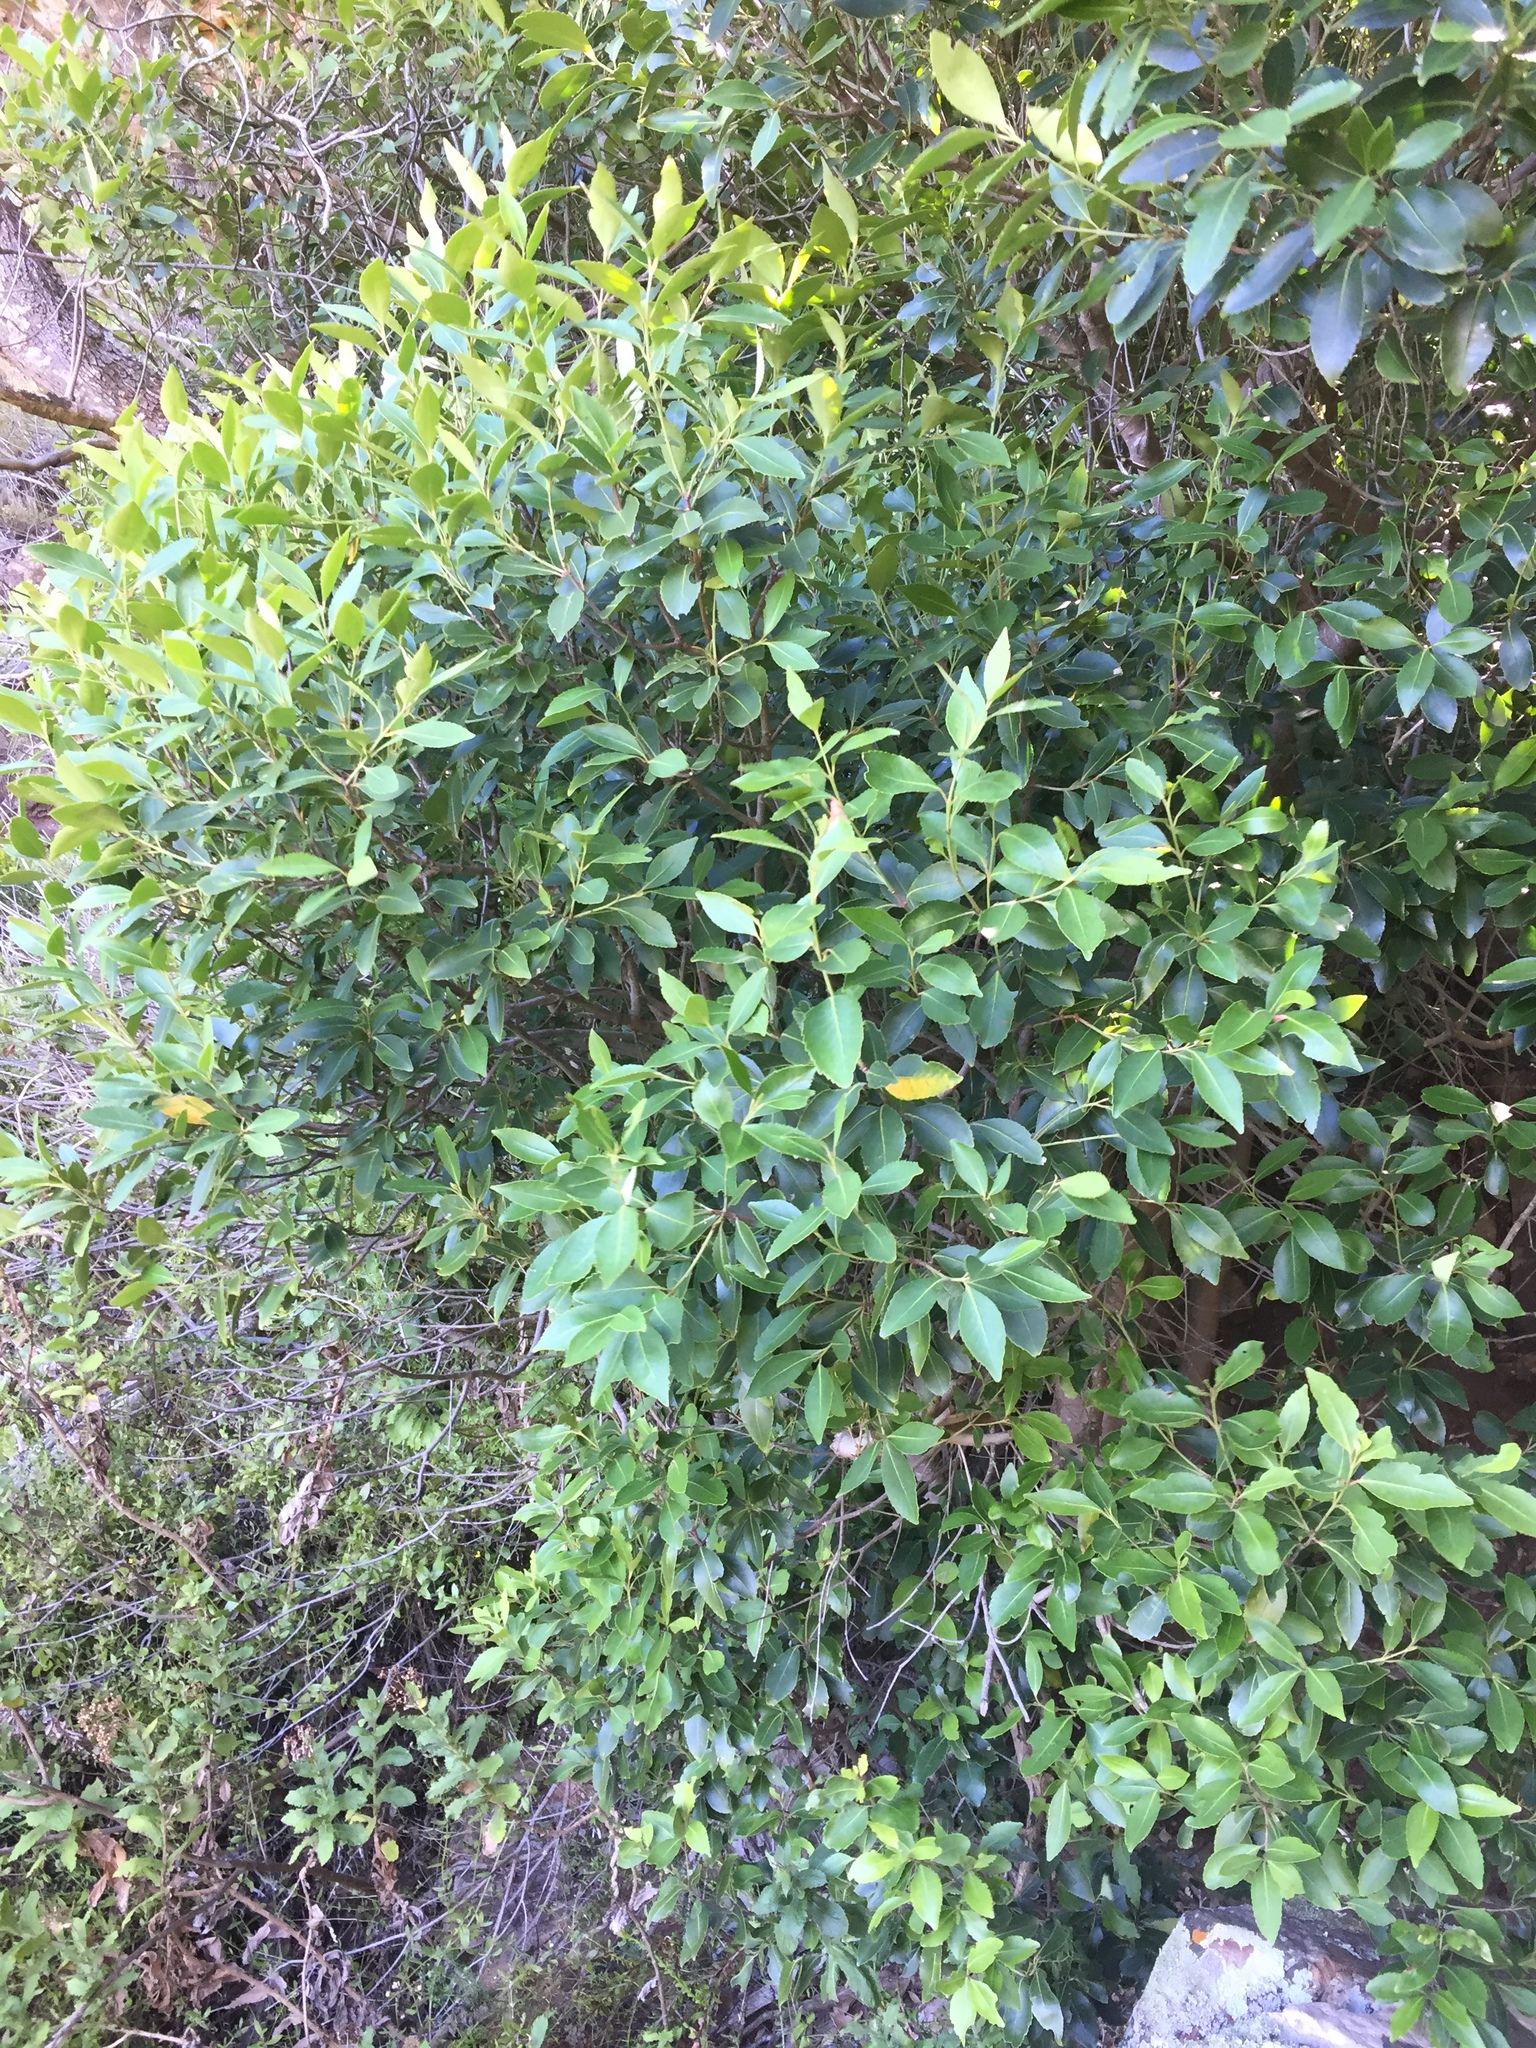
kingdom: Plantae
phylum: Tracheophyta
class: Magnoliopsida
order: Celastrales
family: Celastraceae
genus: Elaeodendron
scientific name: Elaeodendron schinoides
